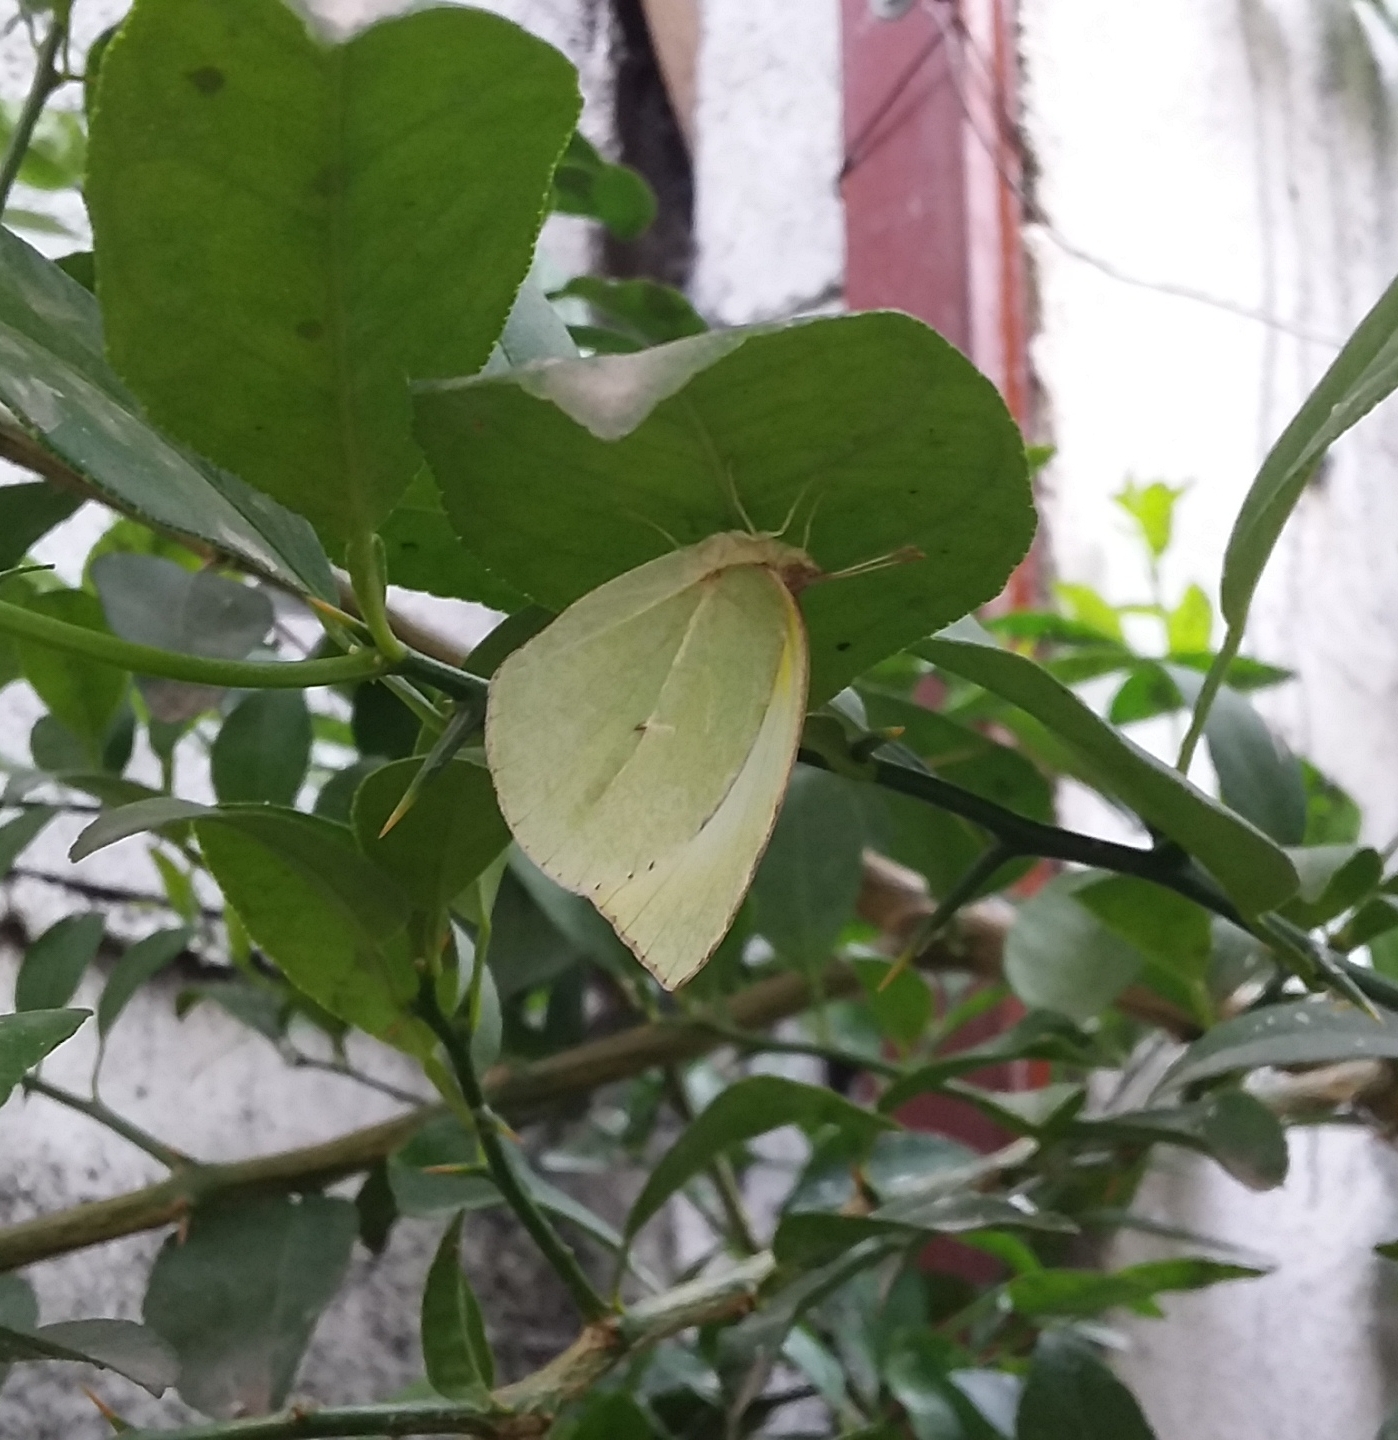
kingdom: Animalia
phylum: Arthropoda
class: Insecta
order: Lepidoptera
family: Pieridae
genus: Kricogonia
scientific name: Kricogonia lyside
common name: Guayacan sulphur,
